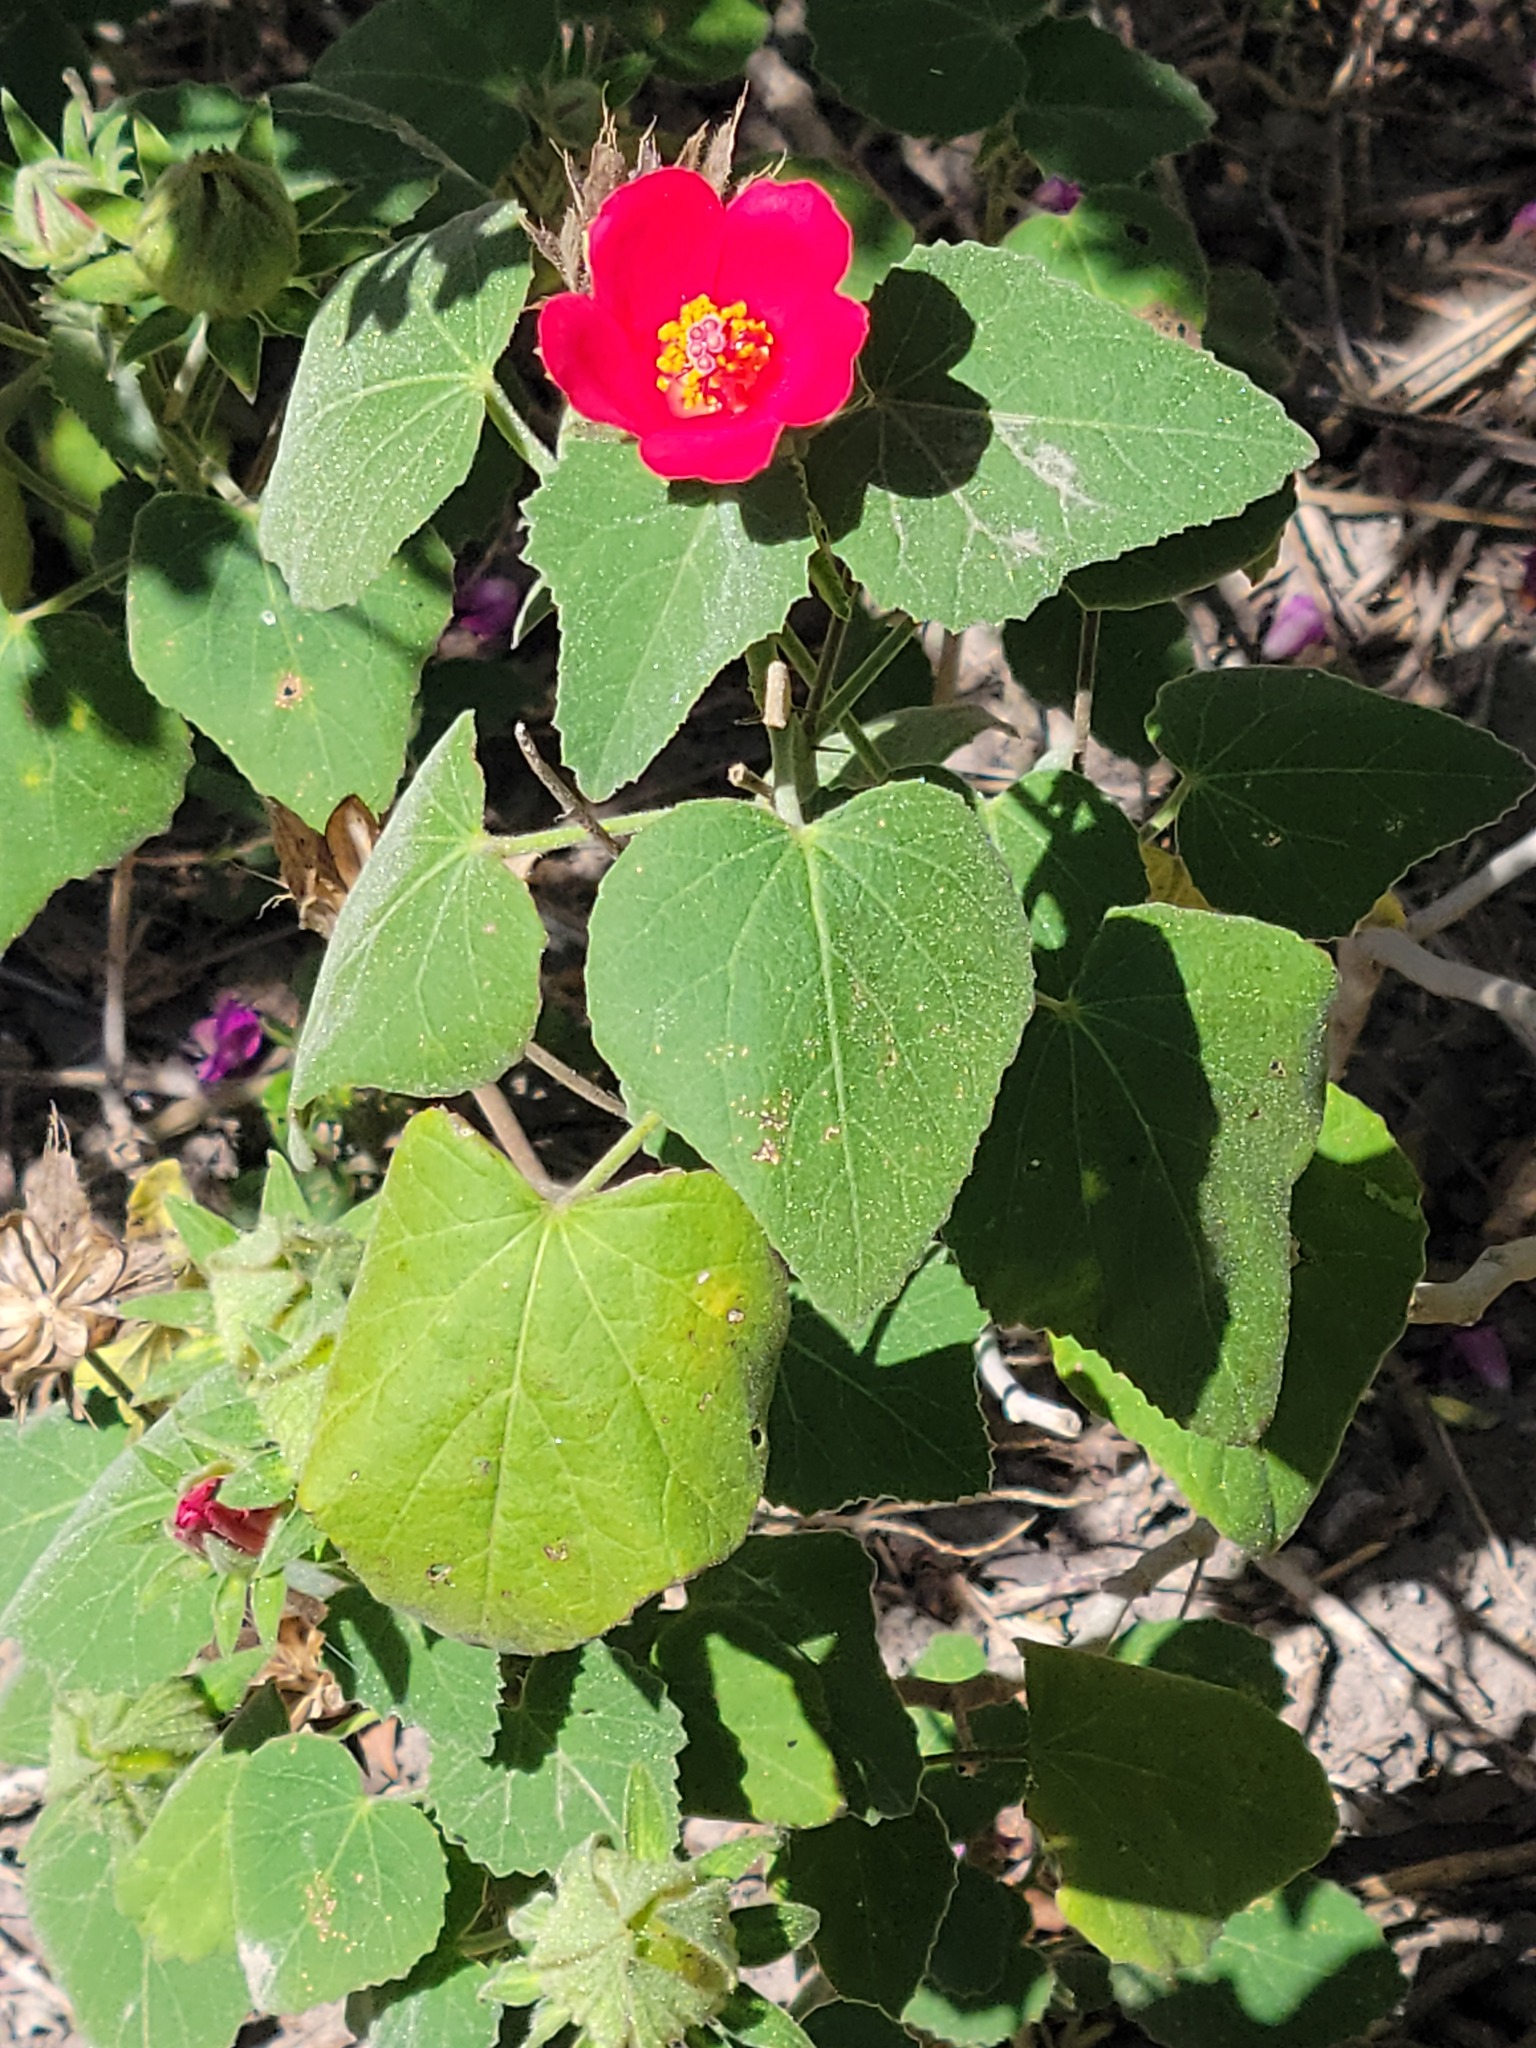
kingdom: Plantae
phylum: Tracheophyta
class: Magnoliopsida
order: Malvales
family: Malvaceae
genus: Hibiscus
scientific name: Hibiscus martianus
